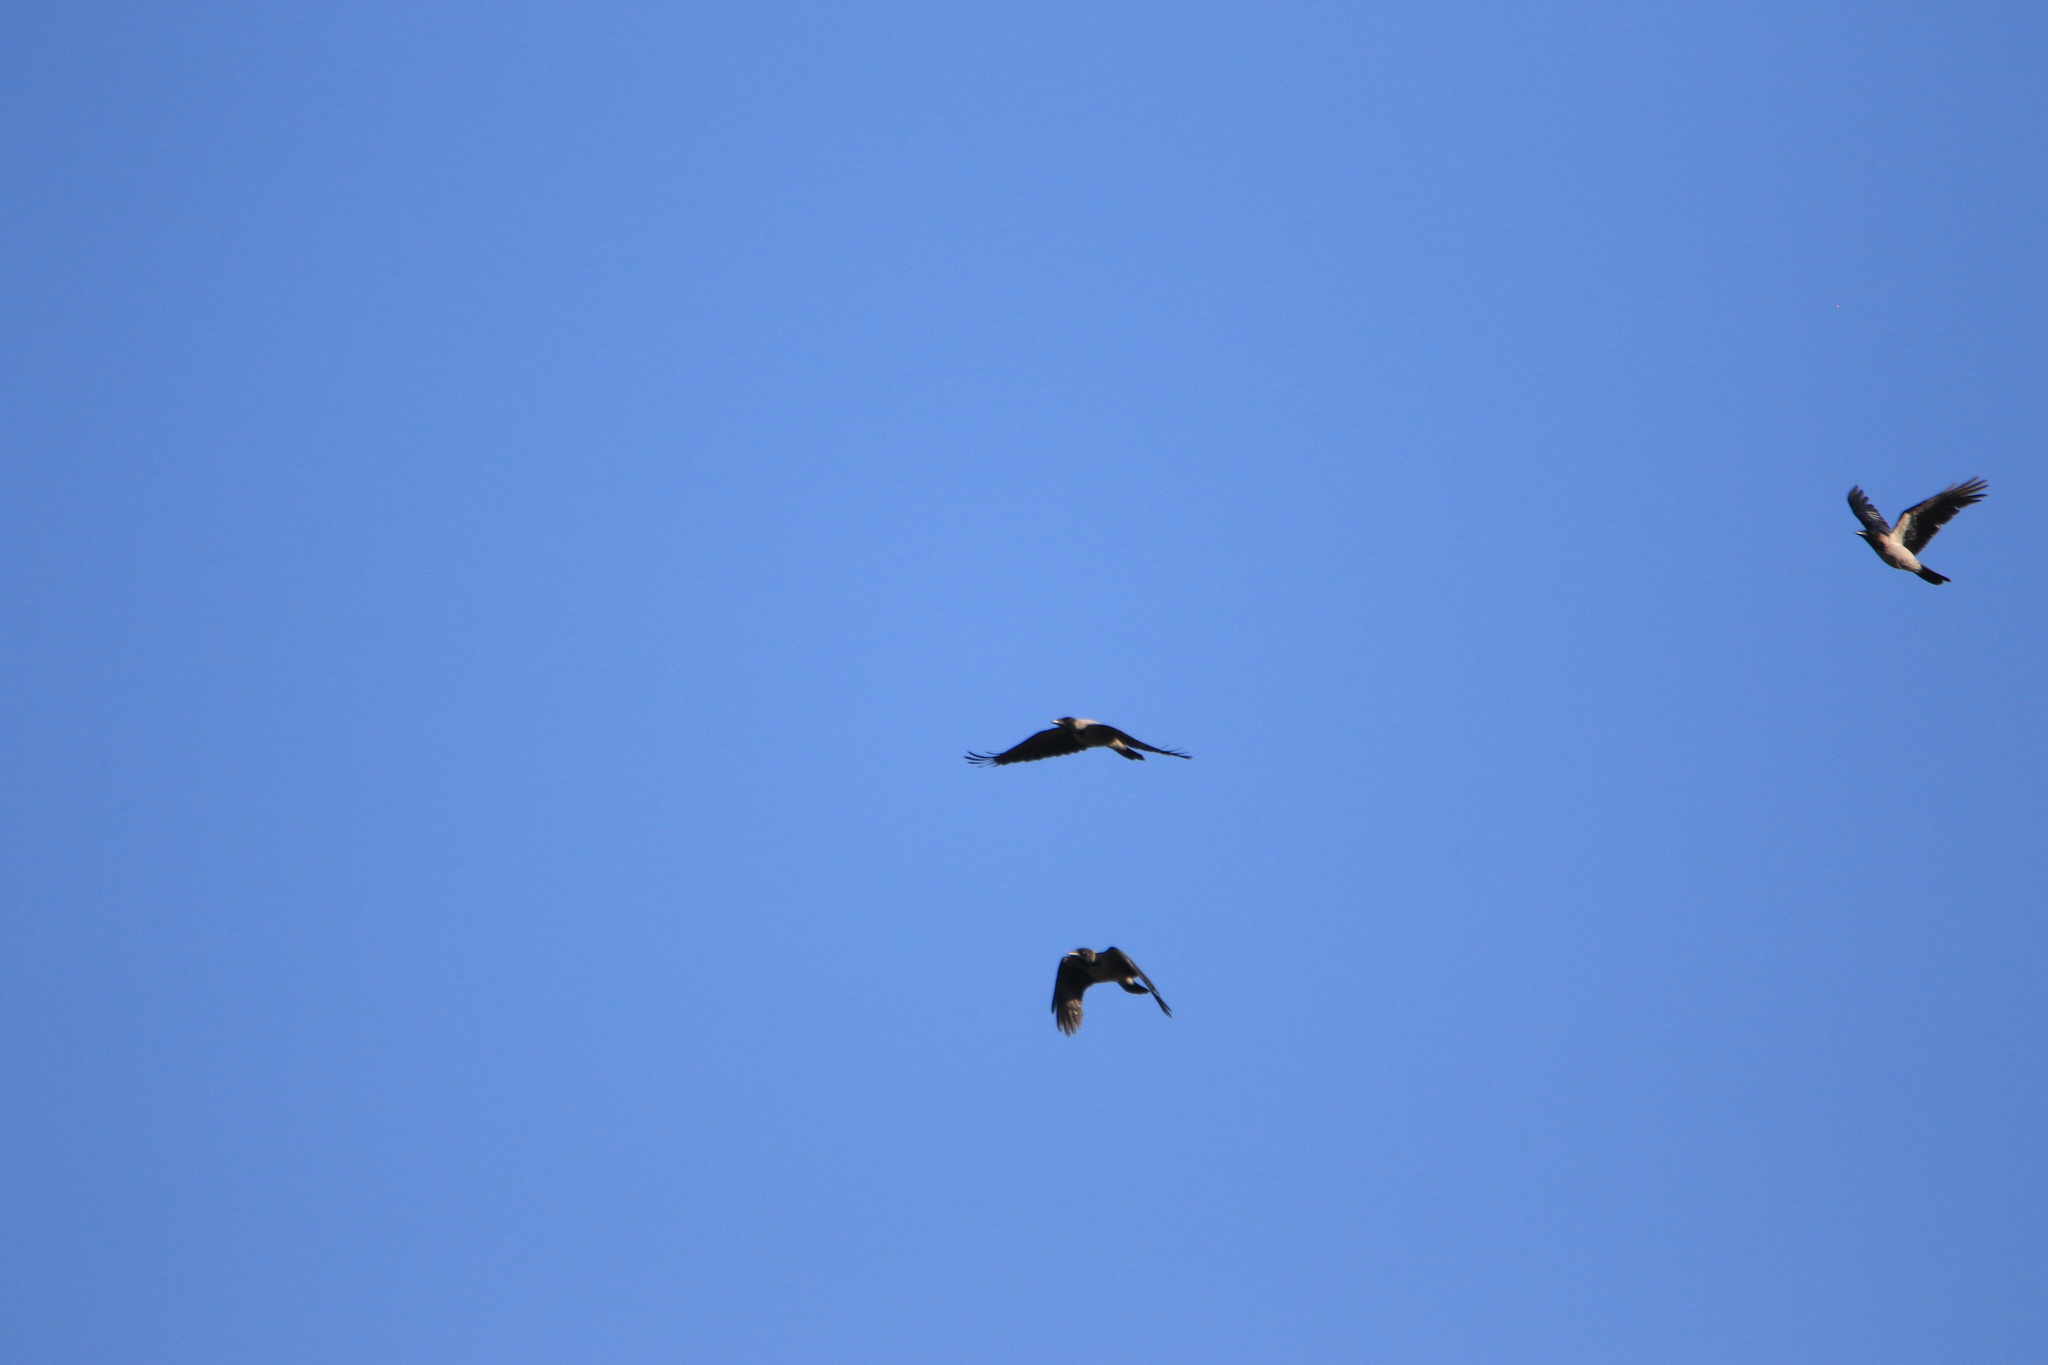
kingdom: Animalia
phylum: Chordata
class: Aves
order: Passeriformes
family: Corvidae
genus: Corvus
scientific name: Corvus cornix
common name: Hooded crow
